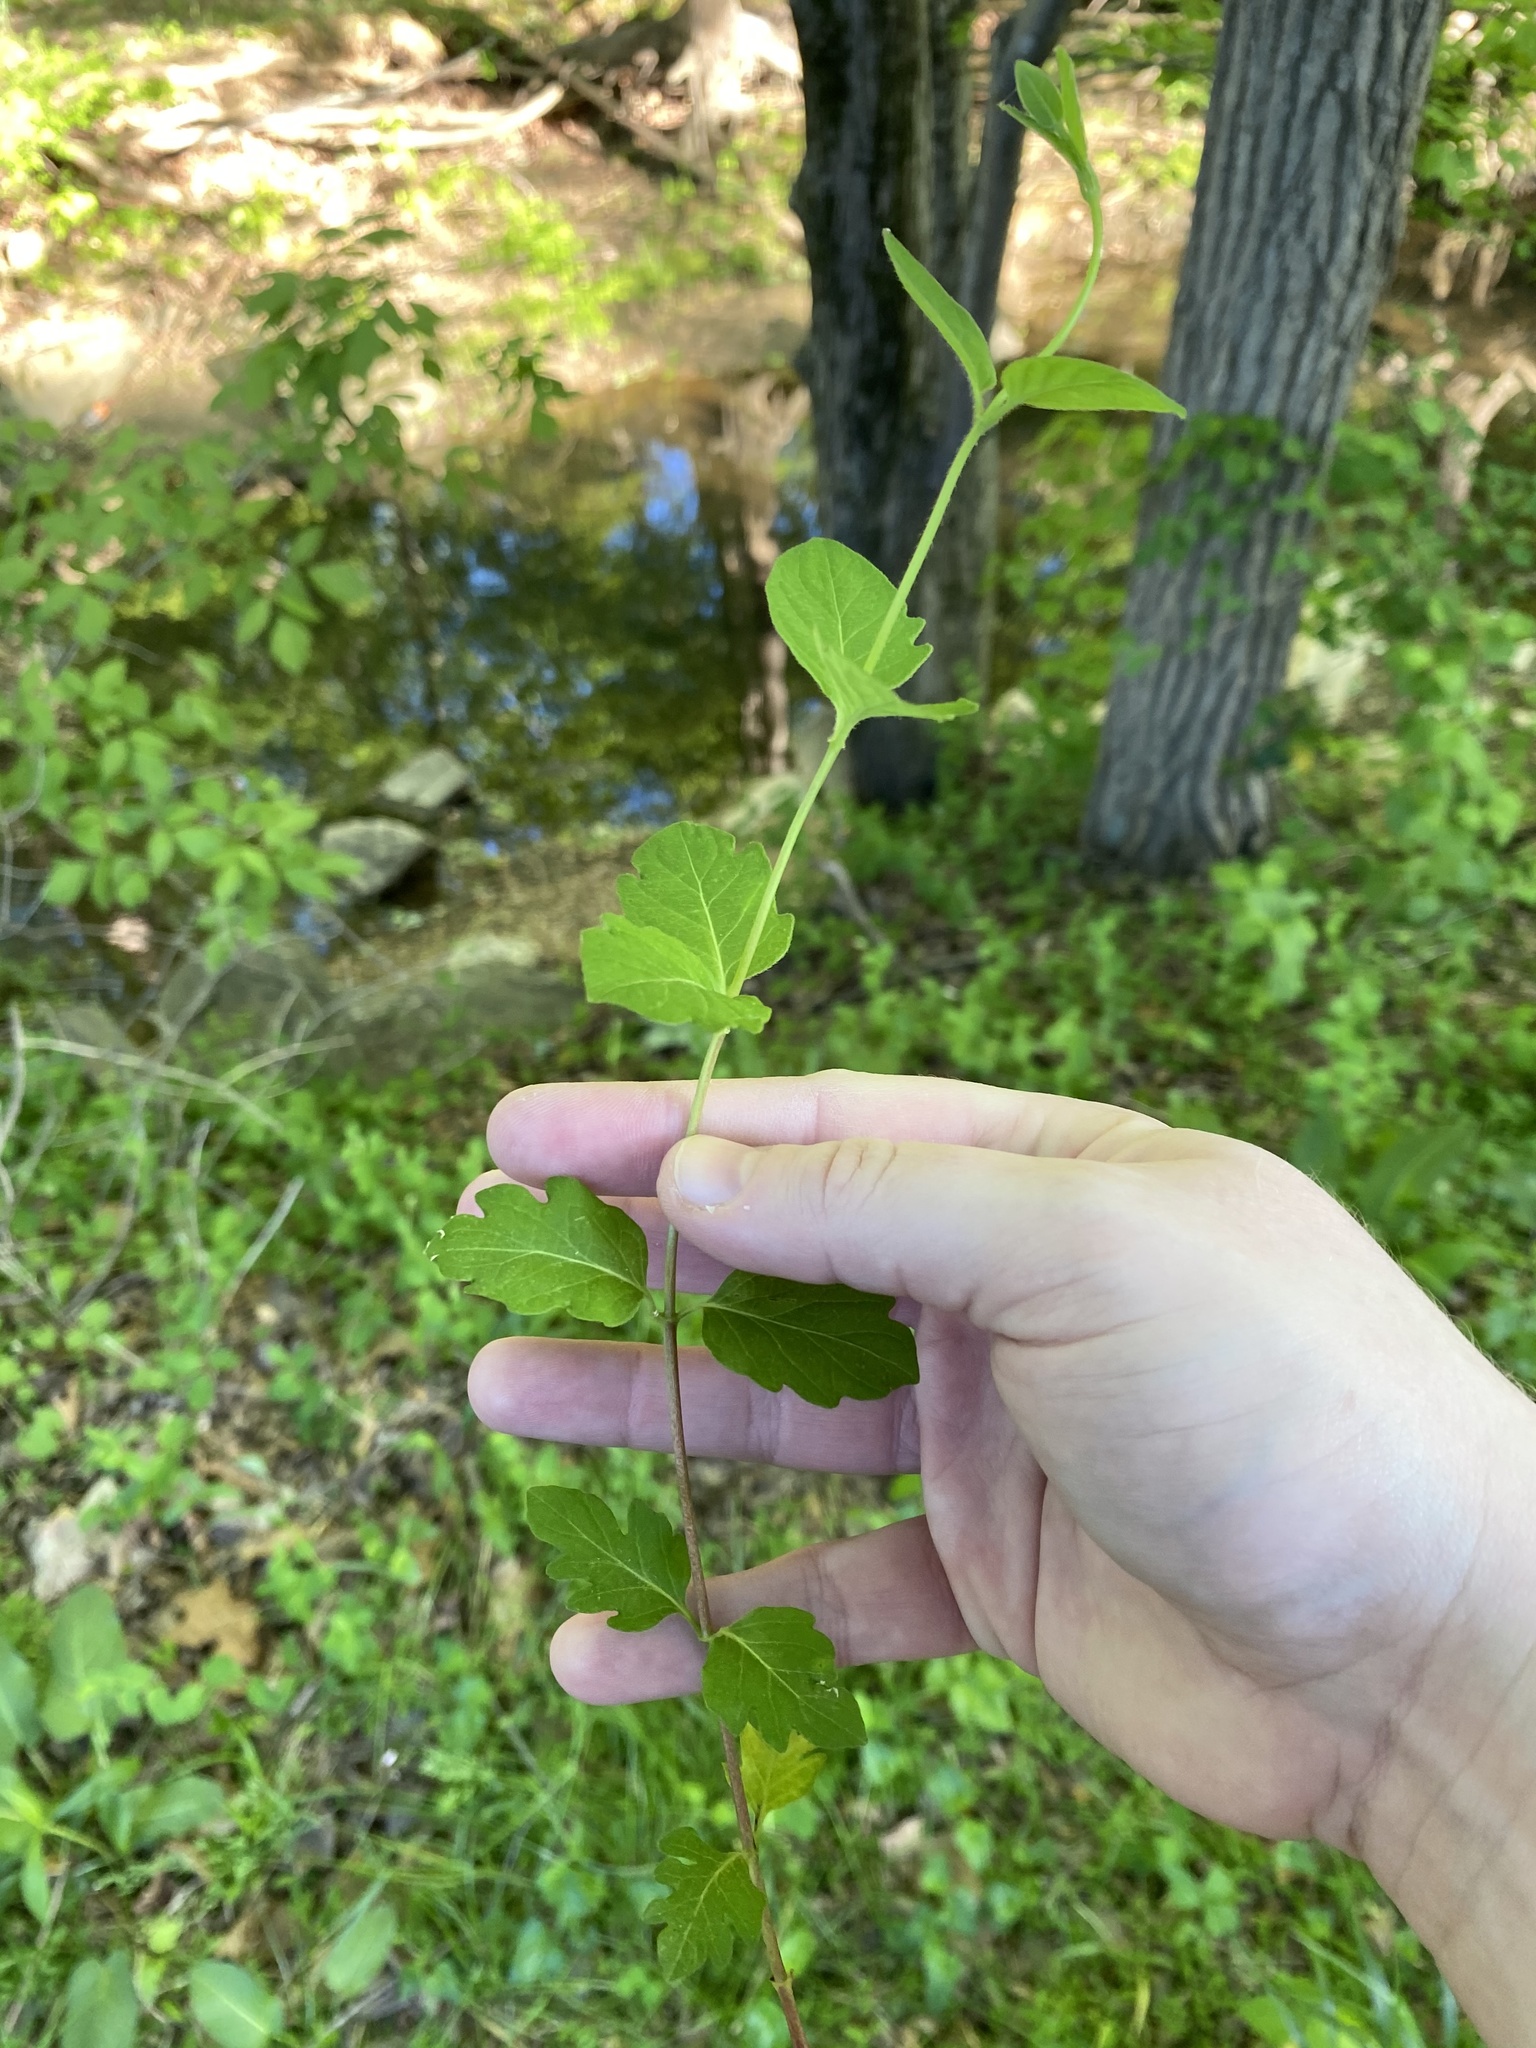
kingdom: Plantae
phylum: Tracheophyta
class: Magnoliopsida
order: Dipsacales
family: Caprifoliaceae
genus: Lonicera
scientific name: Lonicera japonica
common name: Japanese honeysuckle
